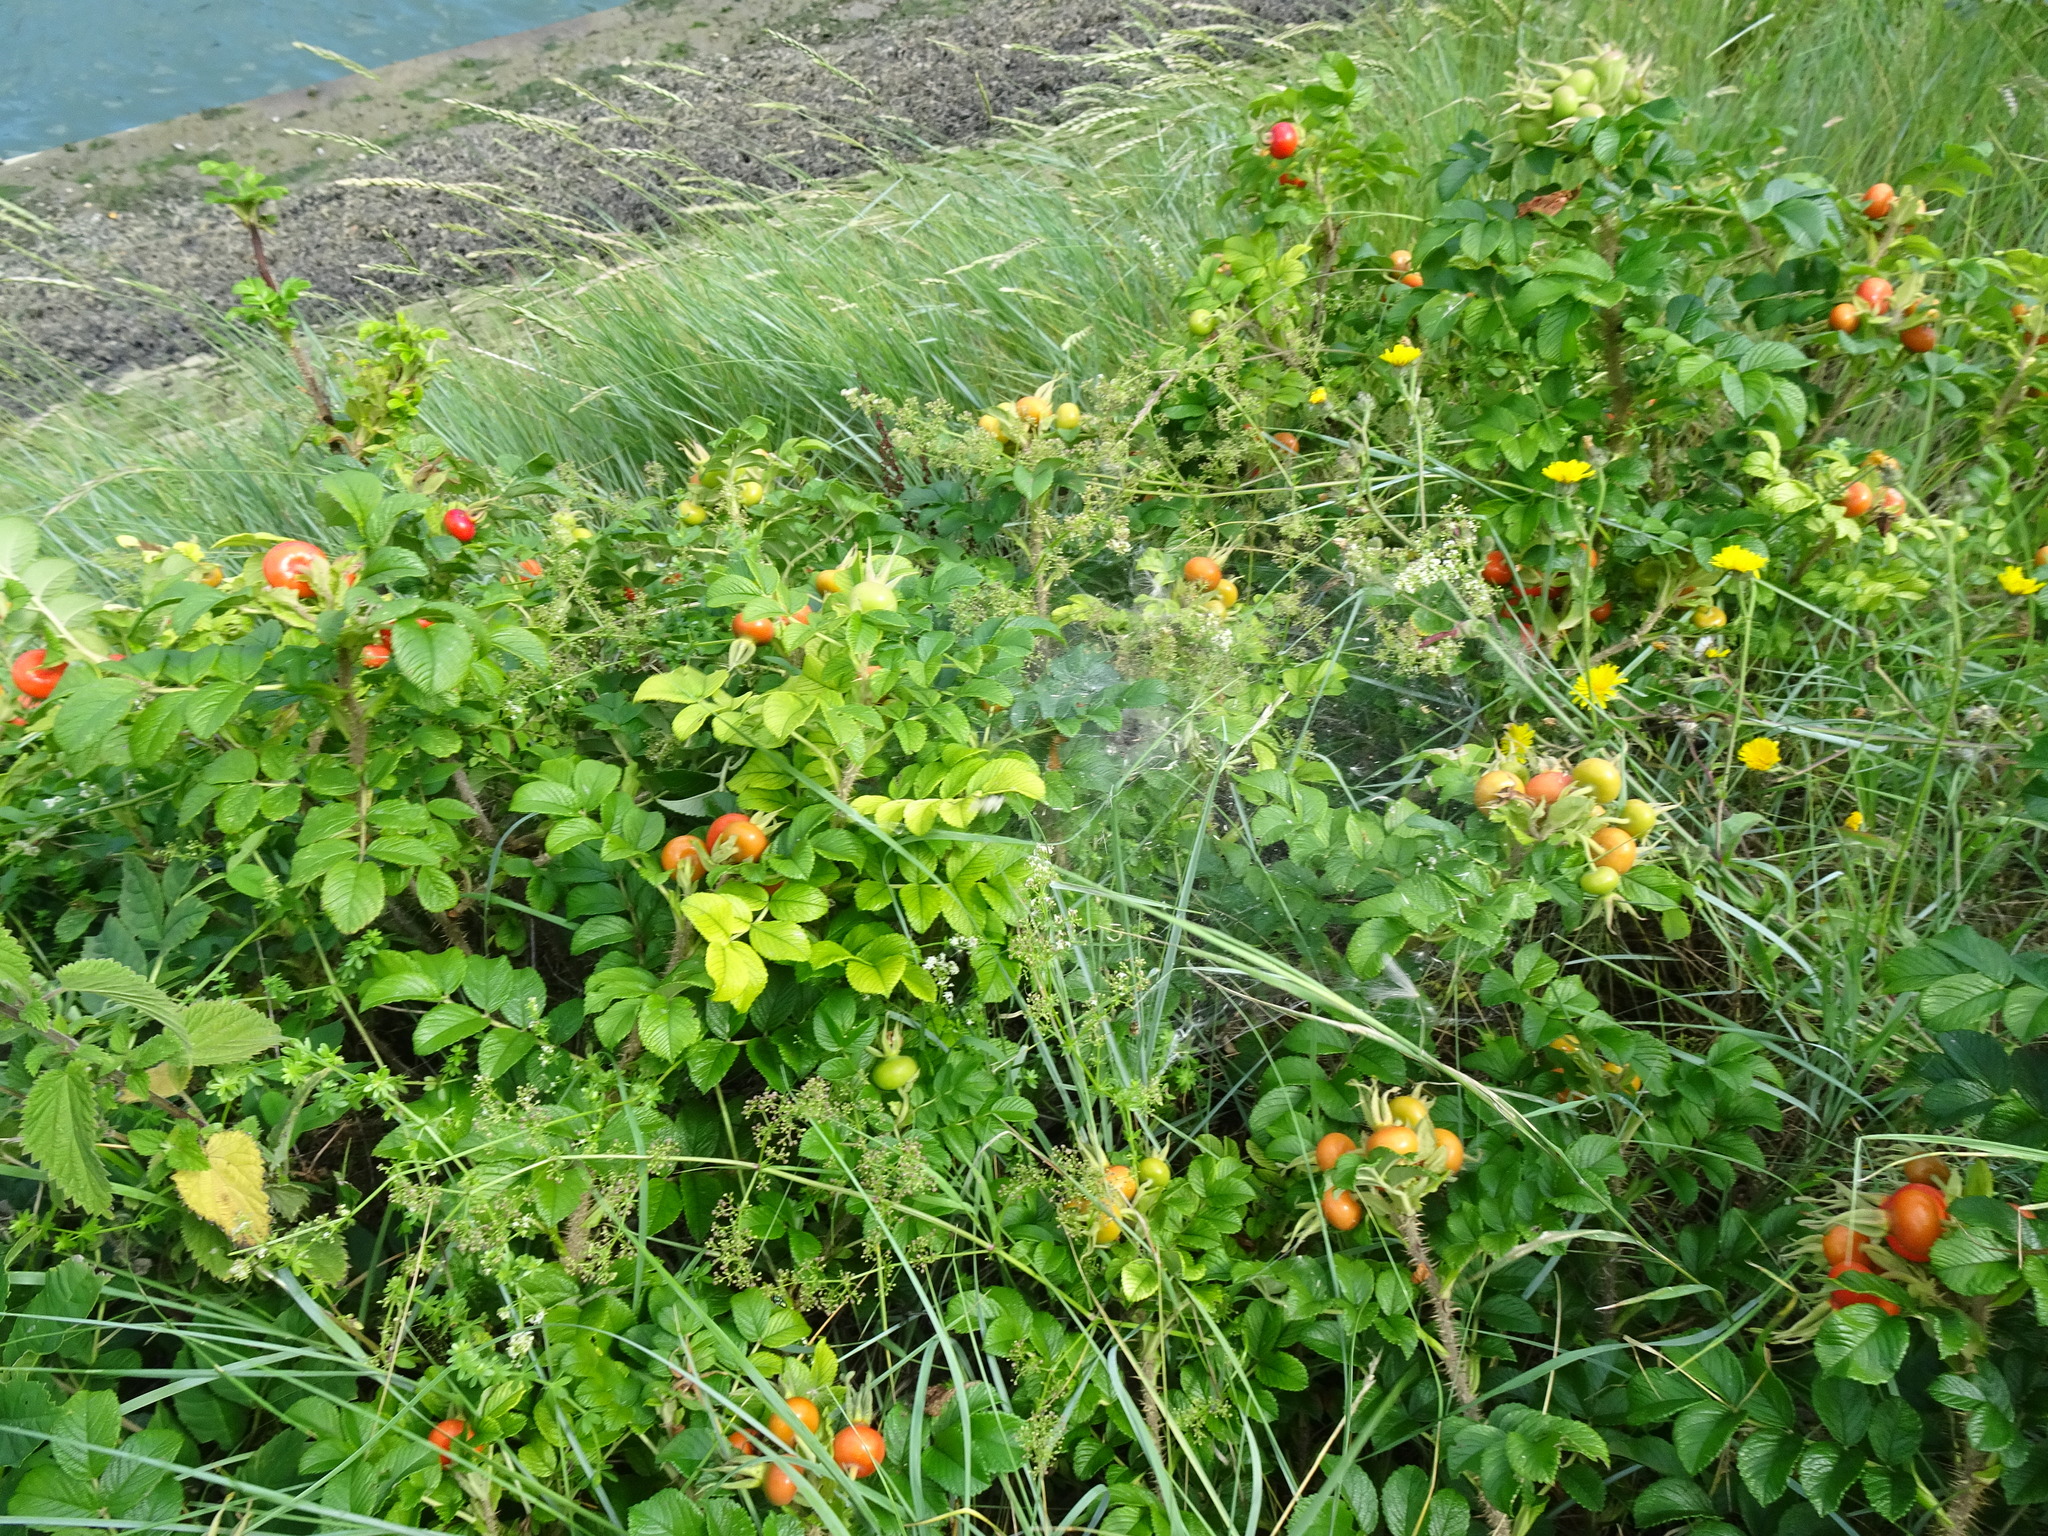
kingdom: Plantae
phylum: Tracheophyta
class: Magnoliopsida
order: Rosales
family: Rosaceae
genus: Rosa
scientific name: Rosa rugosa
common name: Japanese rose
